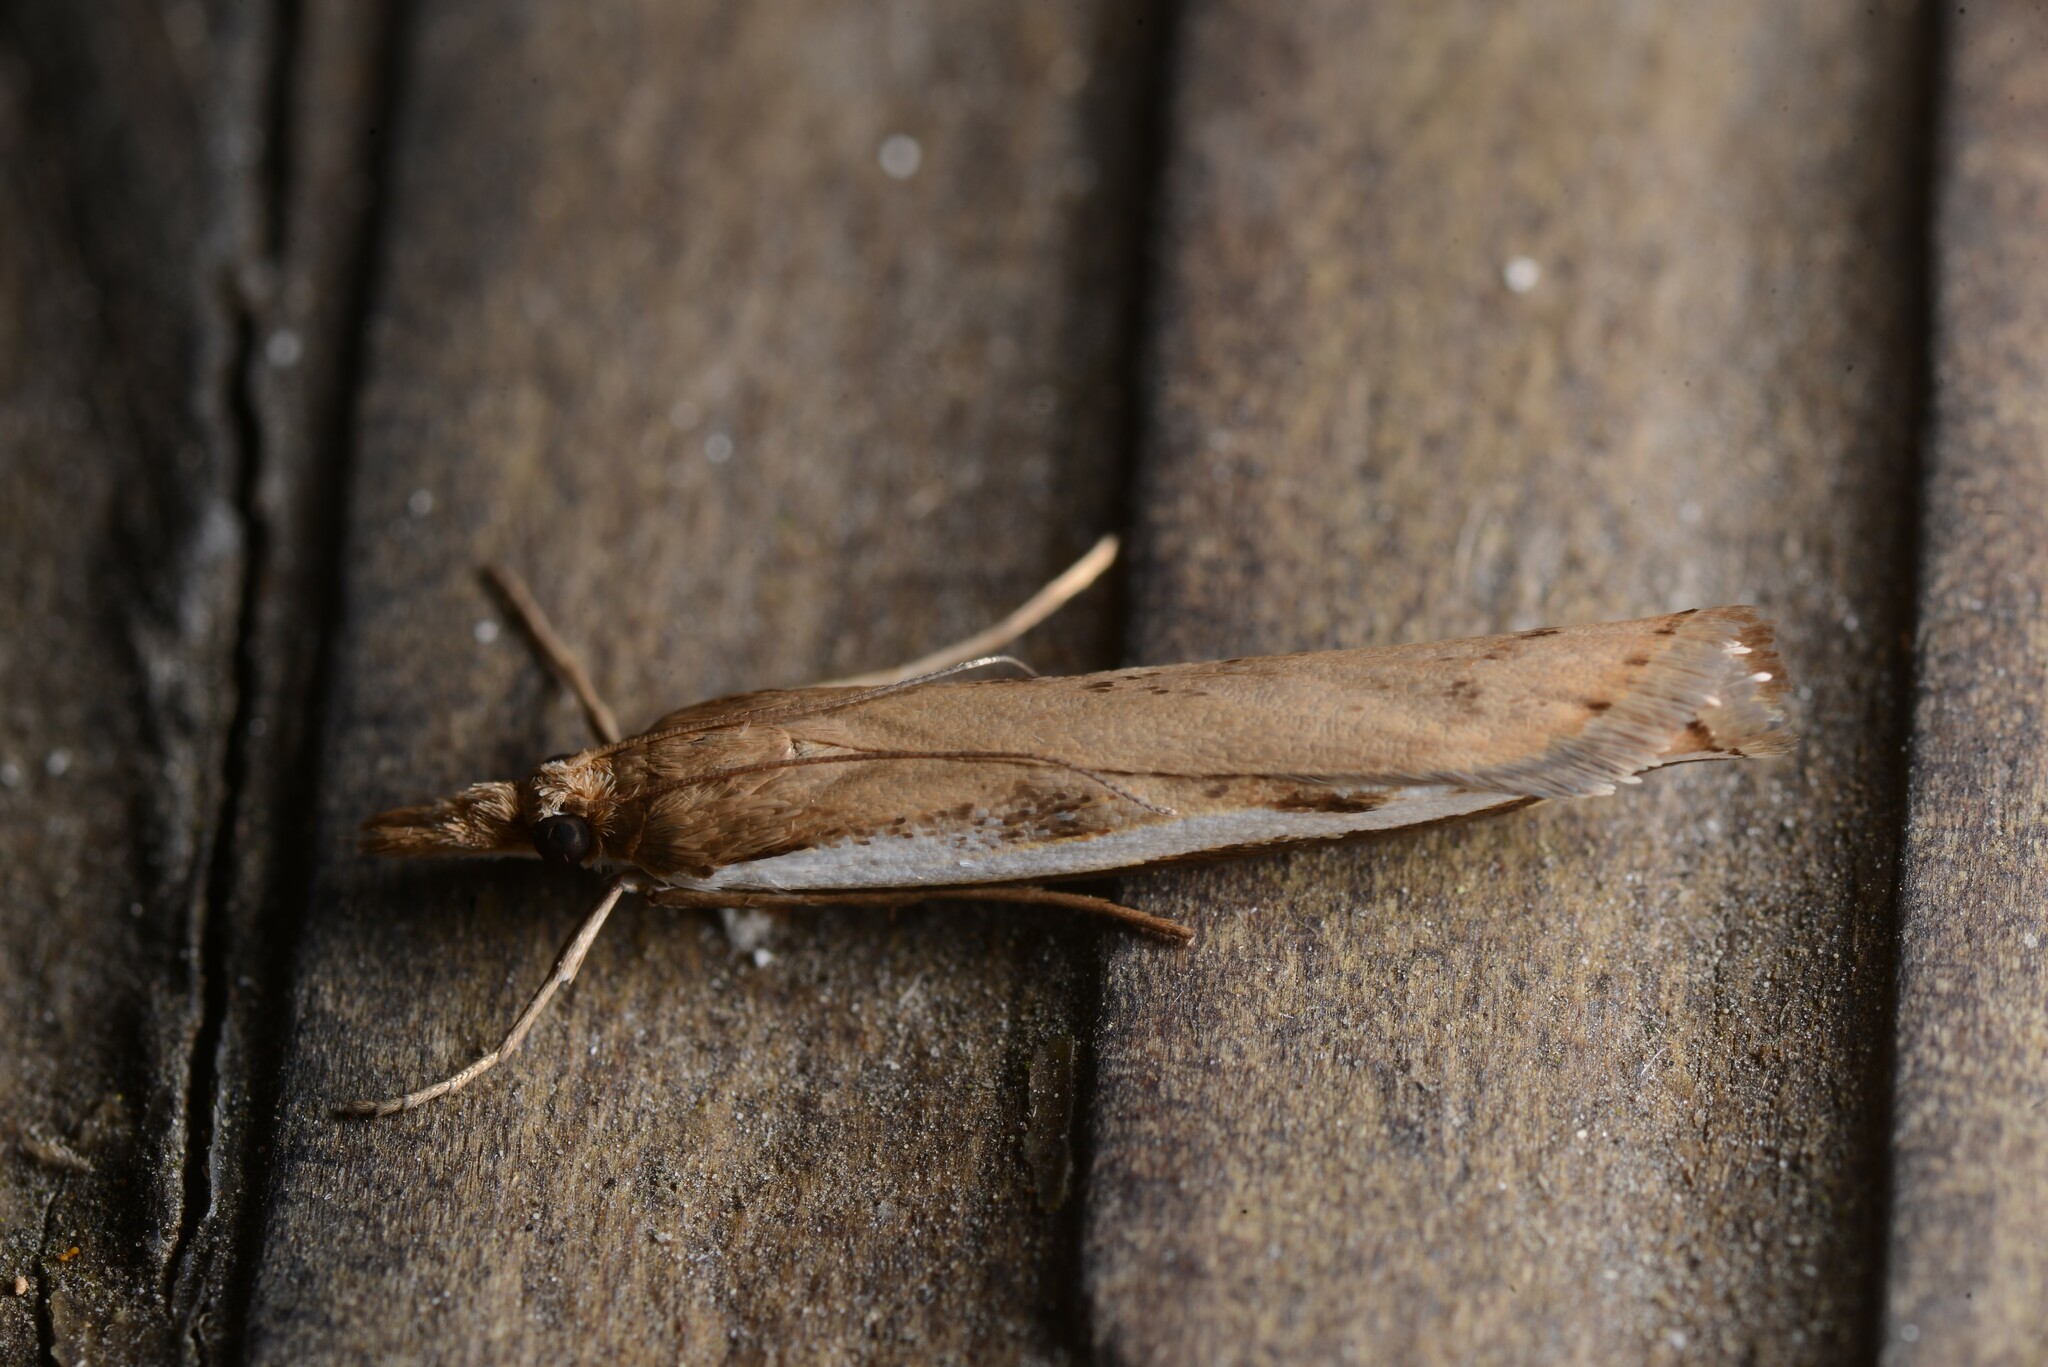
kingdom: Animalia
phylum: Arthropoda
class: Insecta
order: Lepidoptera
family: Crambidae
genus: Orocrambus
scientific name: Orocrambus flexuosellus
